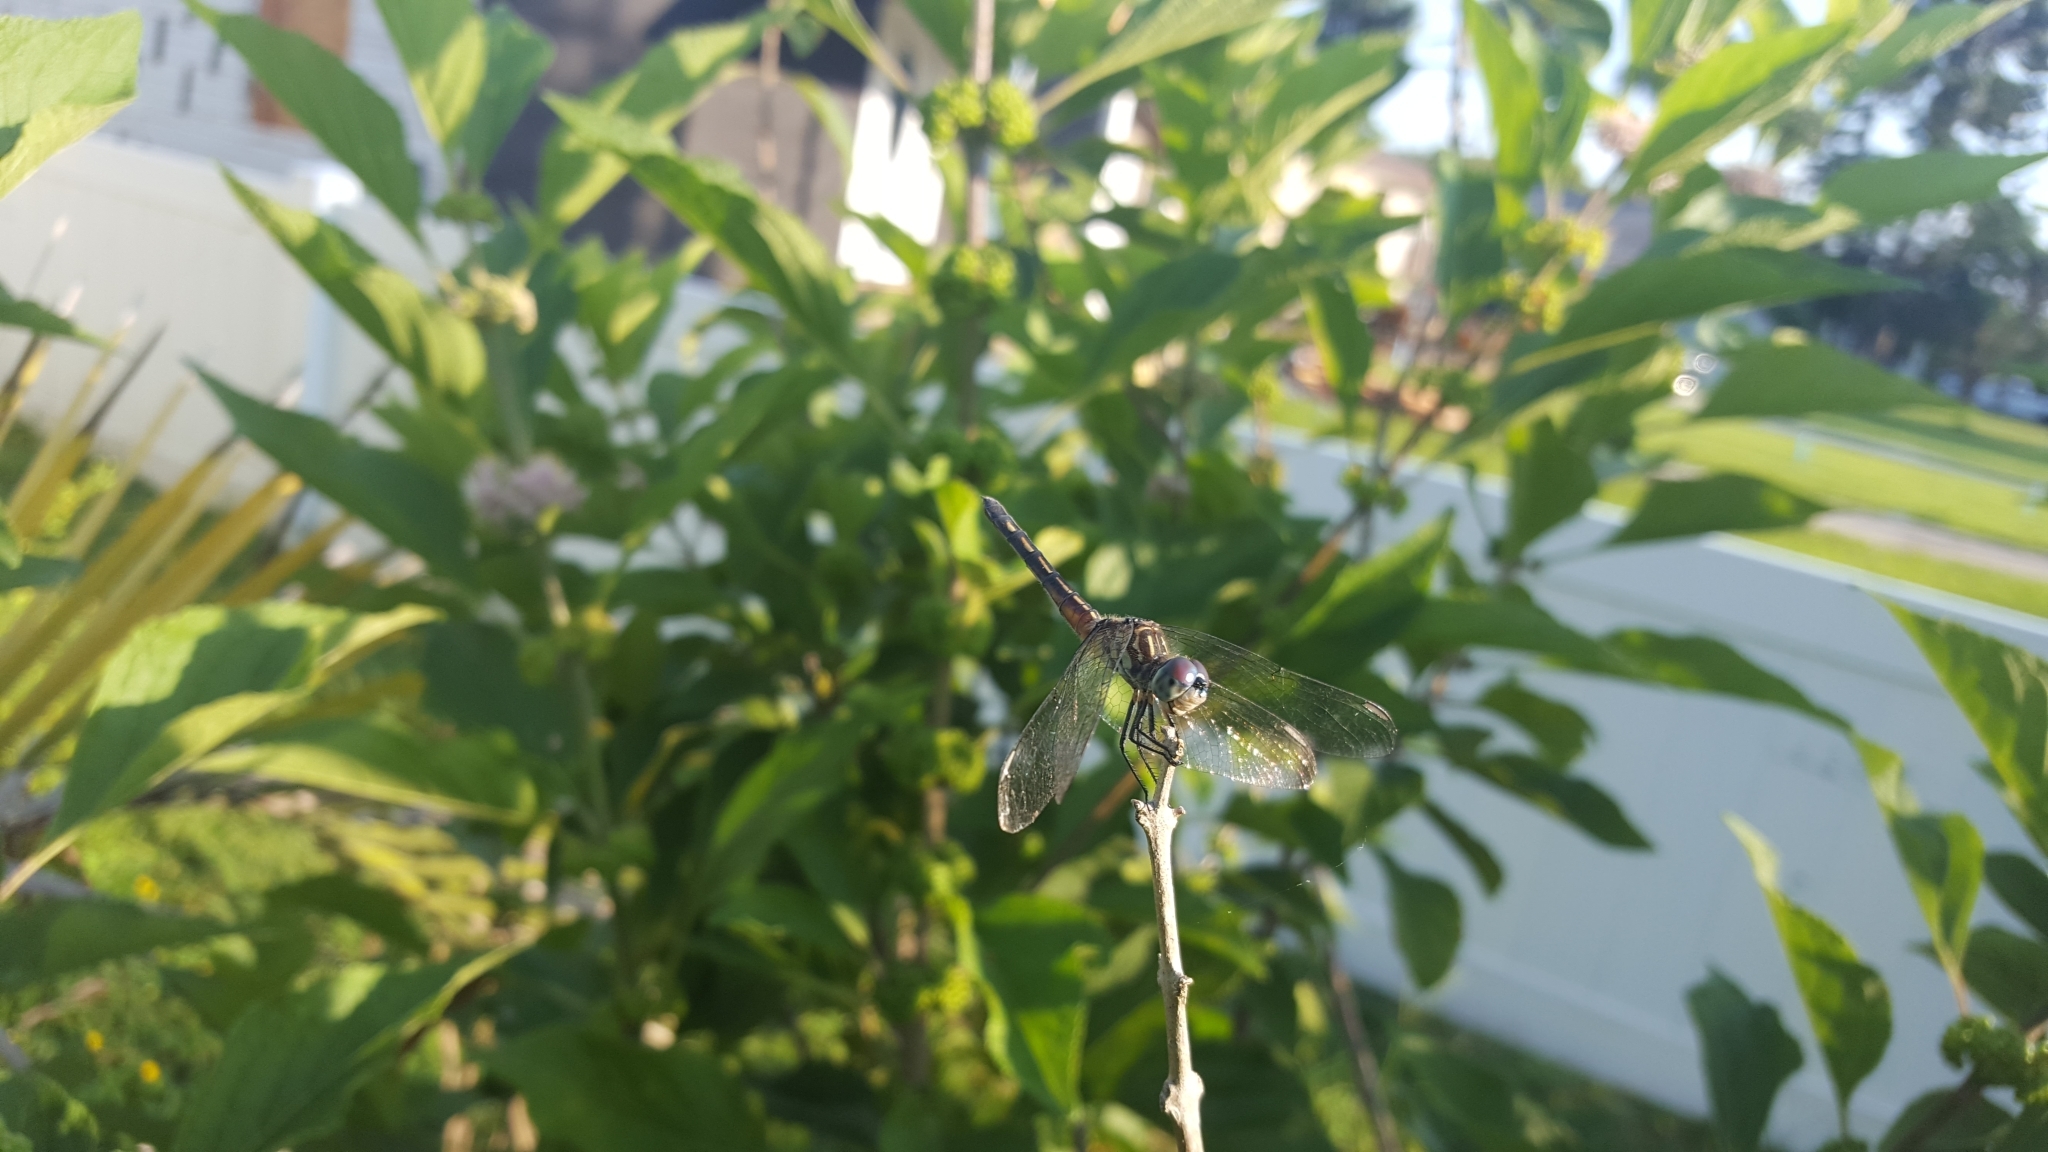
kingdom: Animalia
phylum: Arthropoda
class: Insecta
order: Odonata
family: Libellulidae
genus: Pachydiplax
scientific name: Pachydiplax longipennis
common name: Blue dasher
